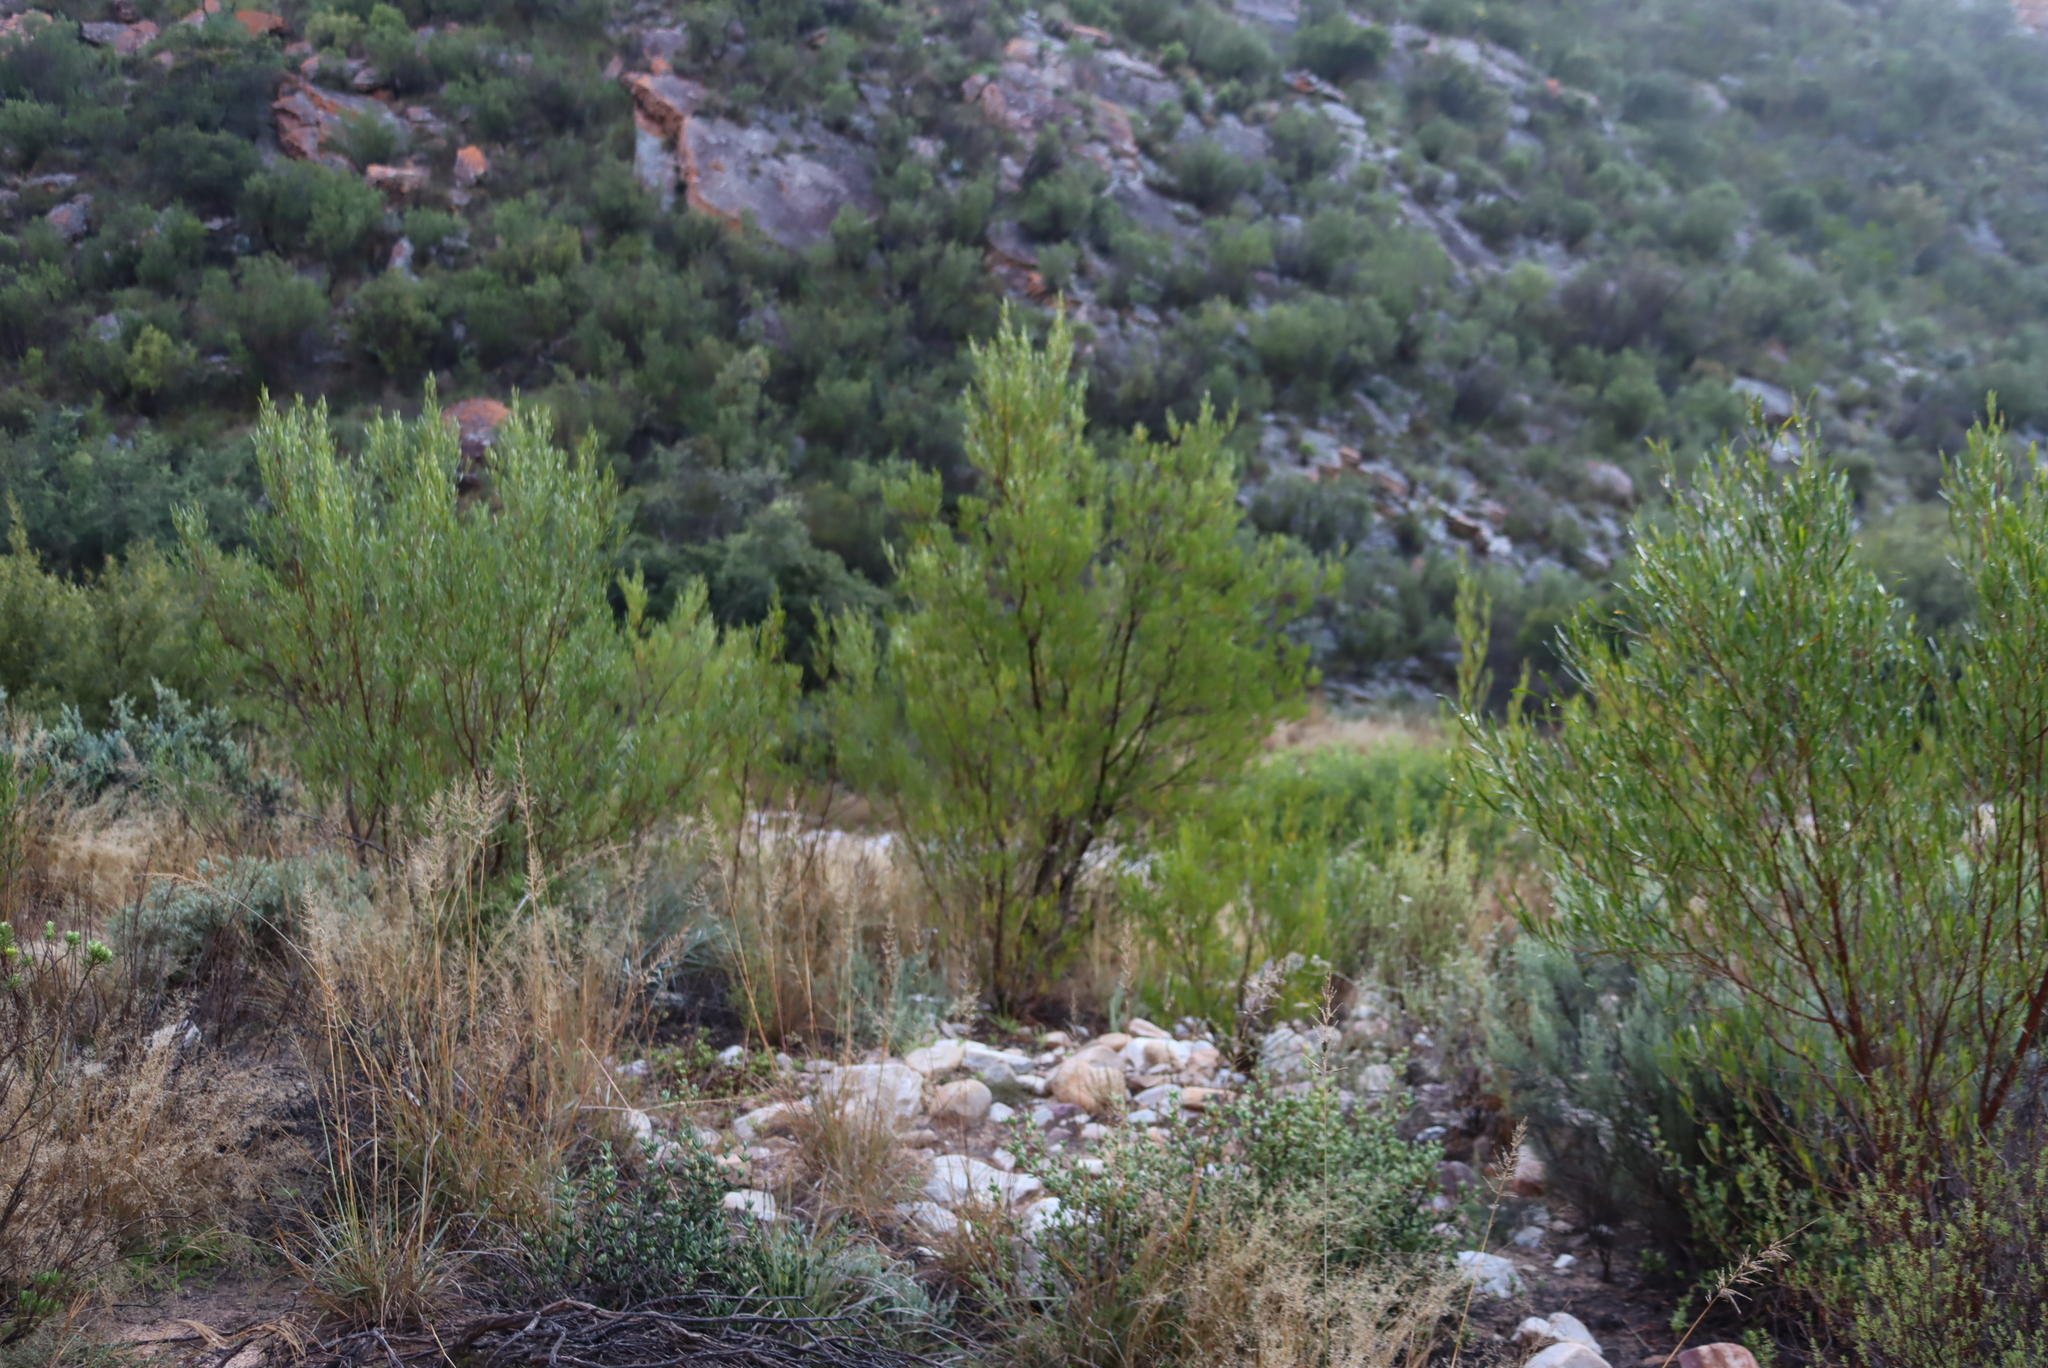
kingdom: Plantae
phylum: Tracheophyta
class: Magnoliopsida
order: Sapindales
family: Sapindaceae
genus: Dodonaea
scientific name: Dodonaea viscosa
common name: Hopbush
